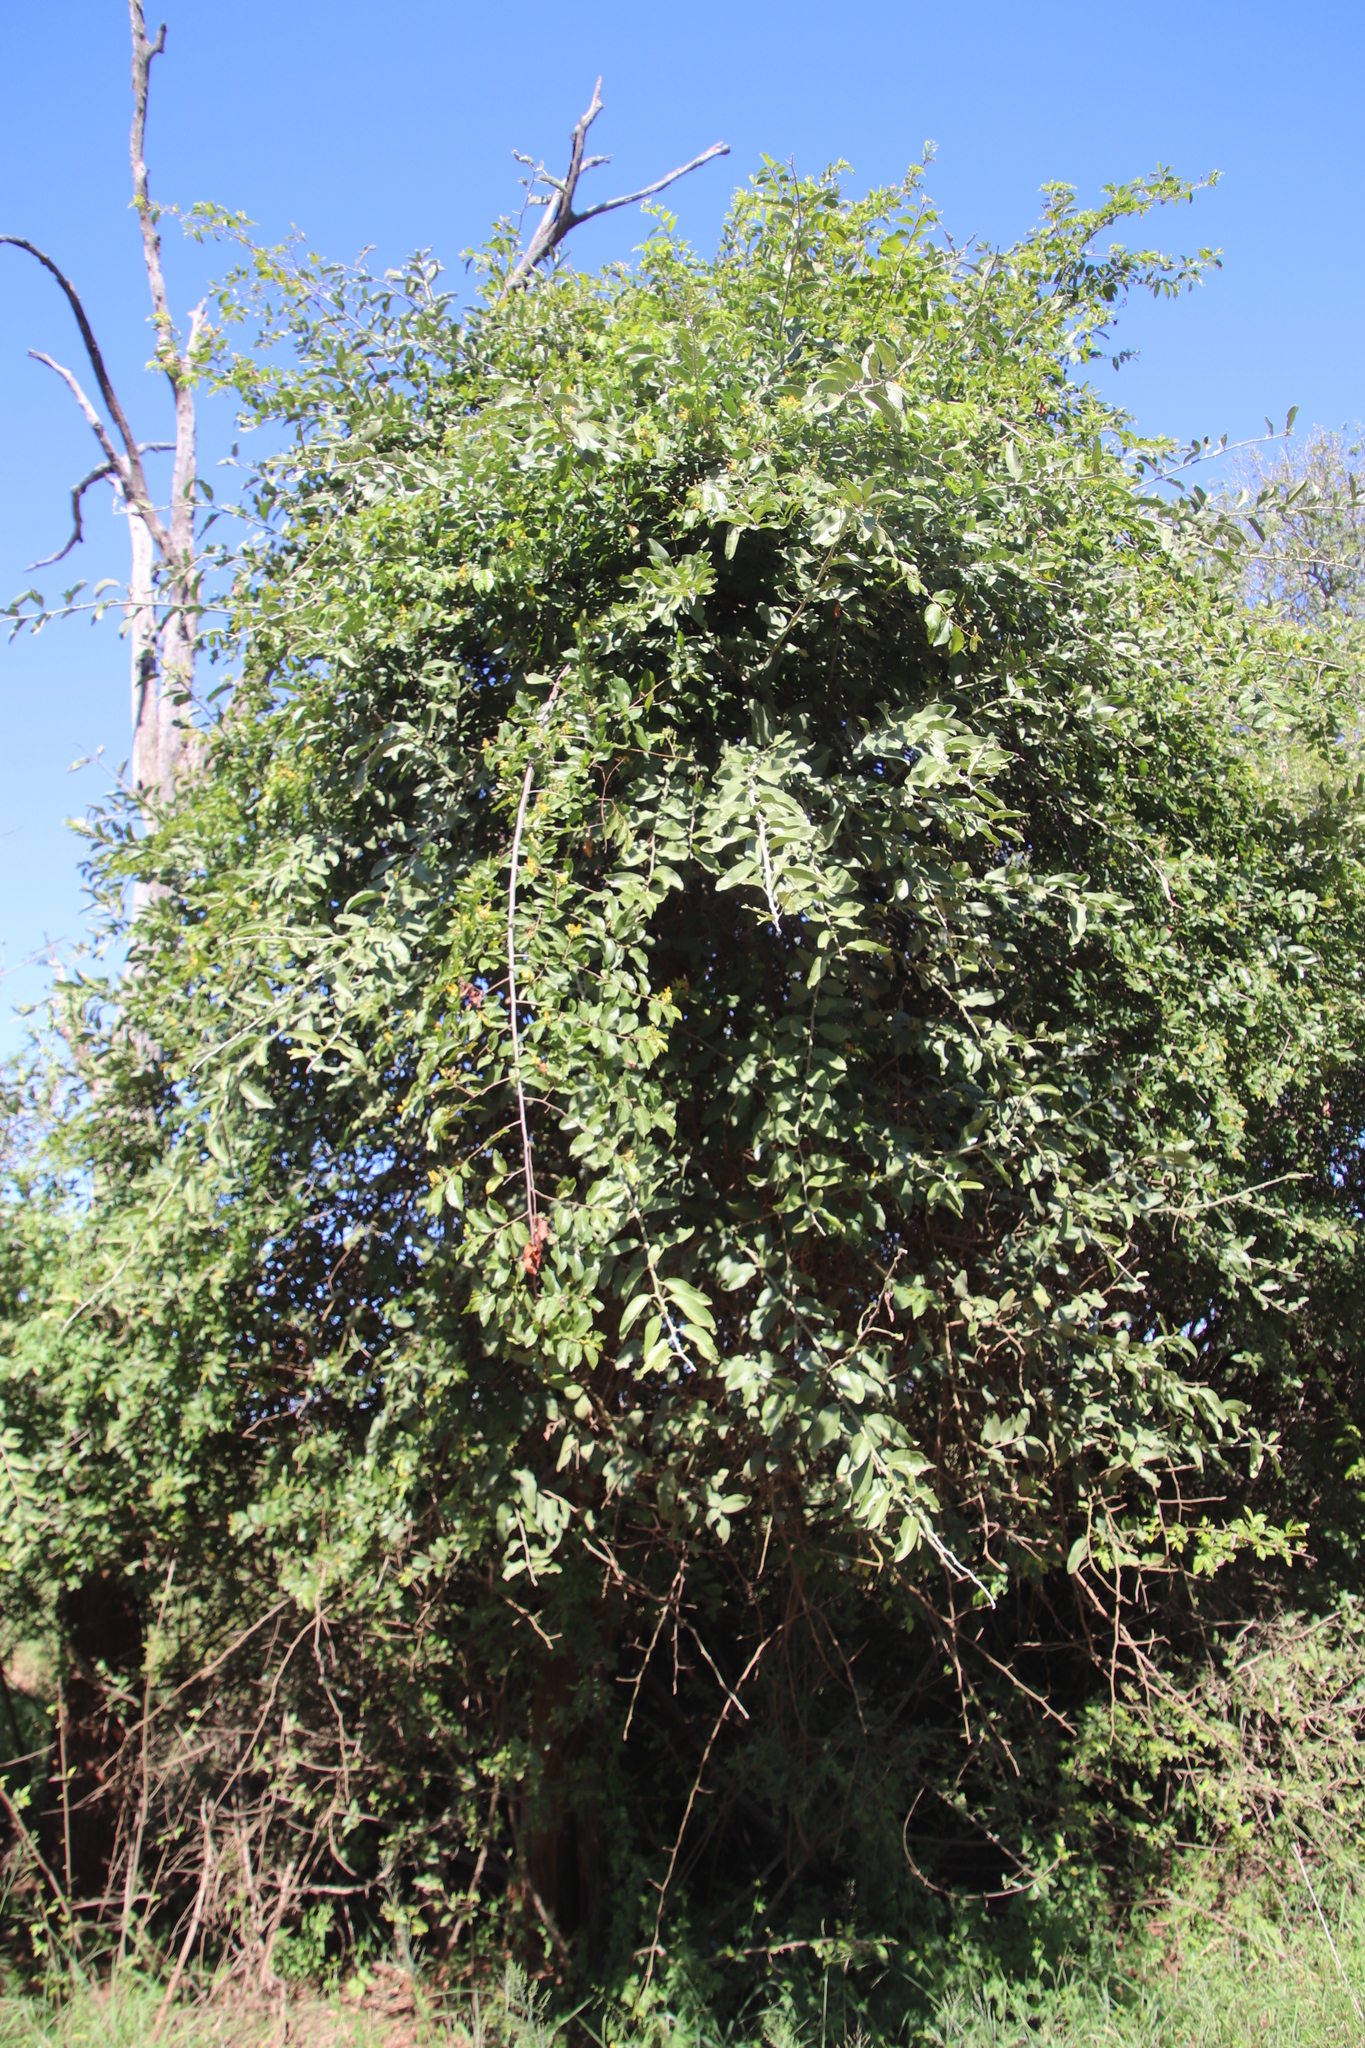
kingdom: Plantae
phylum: Tracheophyta
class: Magnoliopsida
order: Malvales
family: Malvaceae
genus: Grewia
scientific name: Grewia flavescens
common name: Sandpaper raisin
